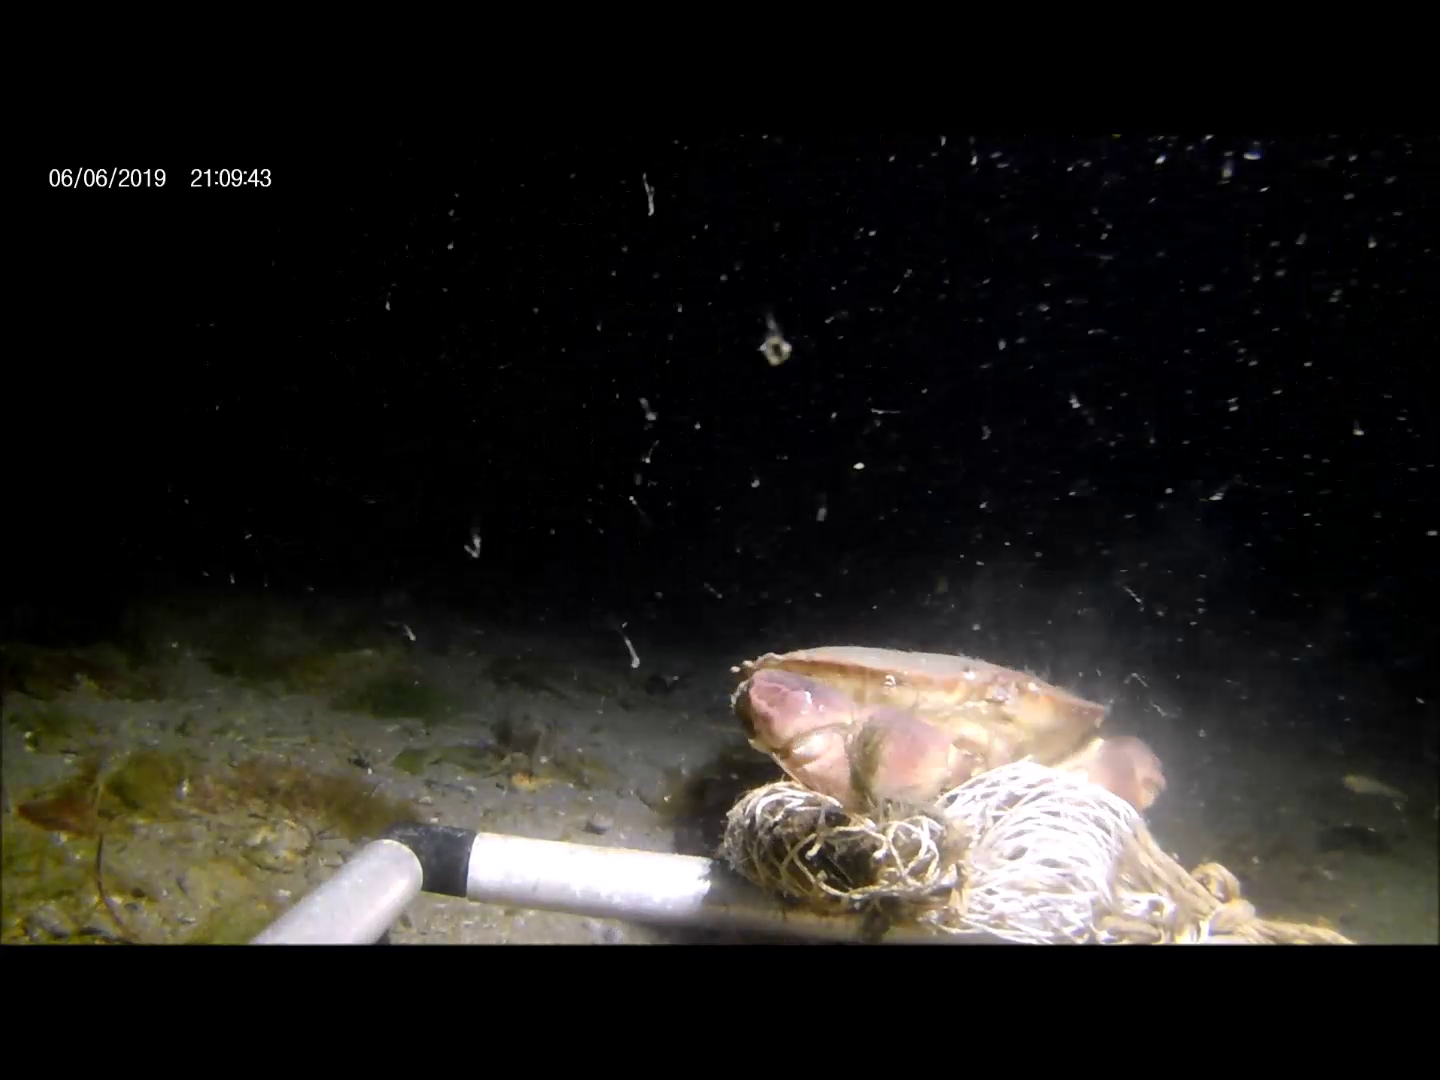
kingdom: Animalia
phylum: Arthropoda
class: Malacostraca
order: Decapoda
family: Cancridae
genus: Cancer
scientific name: Cancer pagurus
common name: Edible crab
